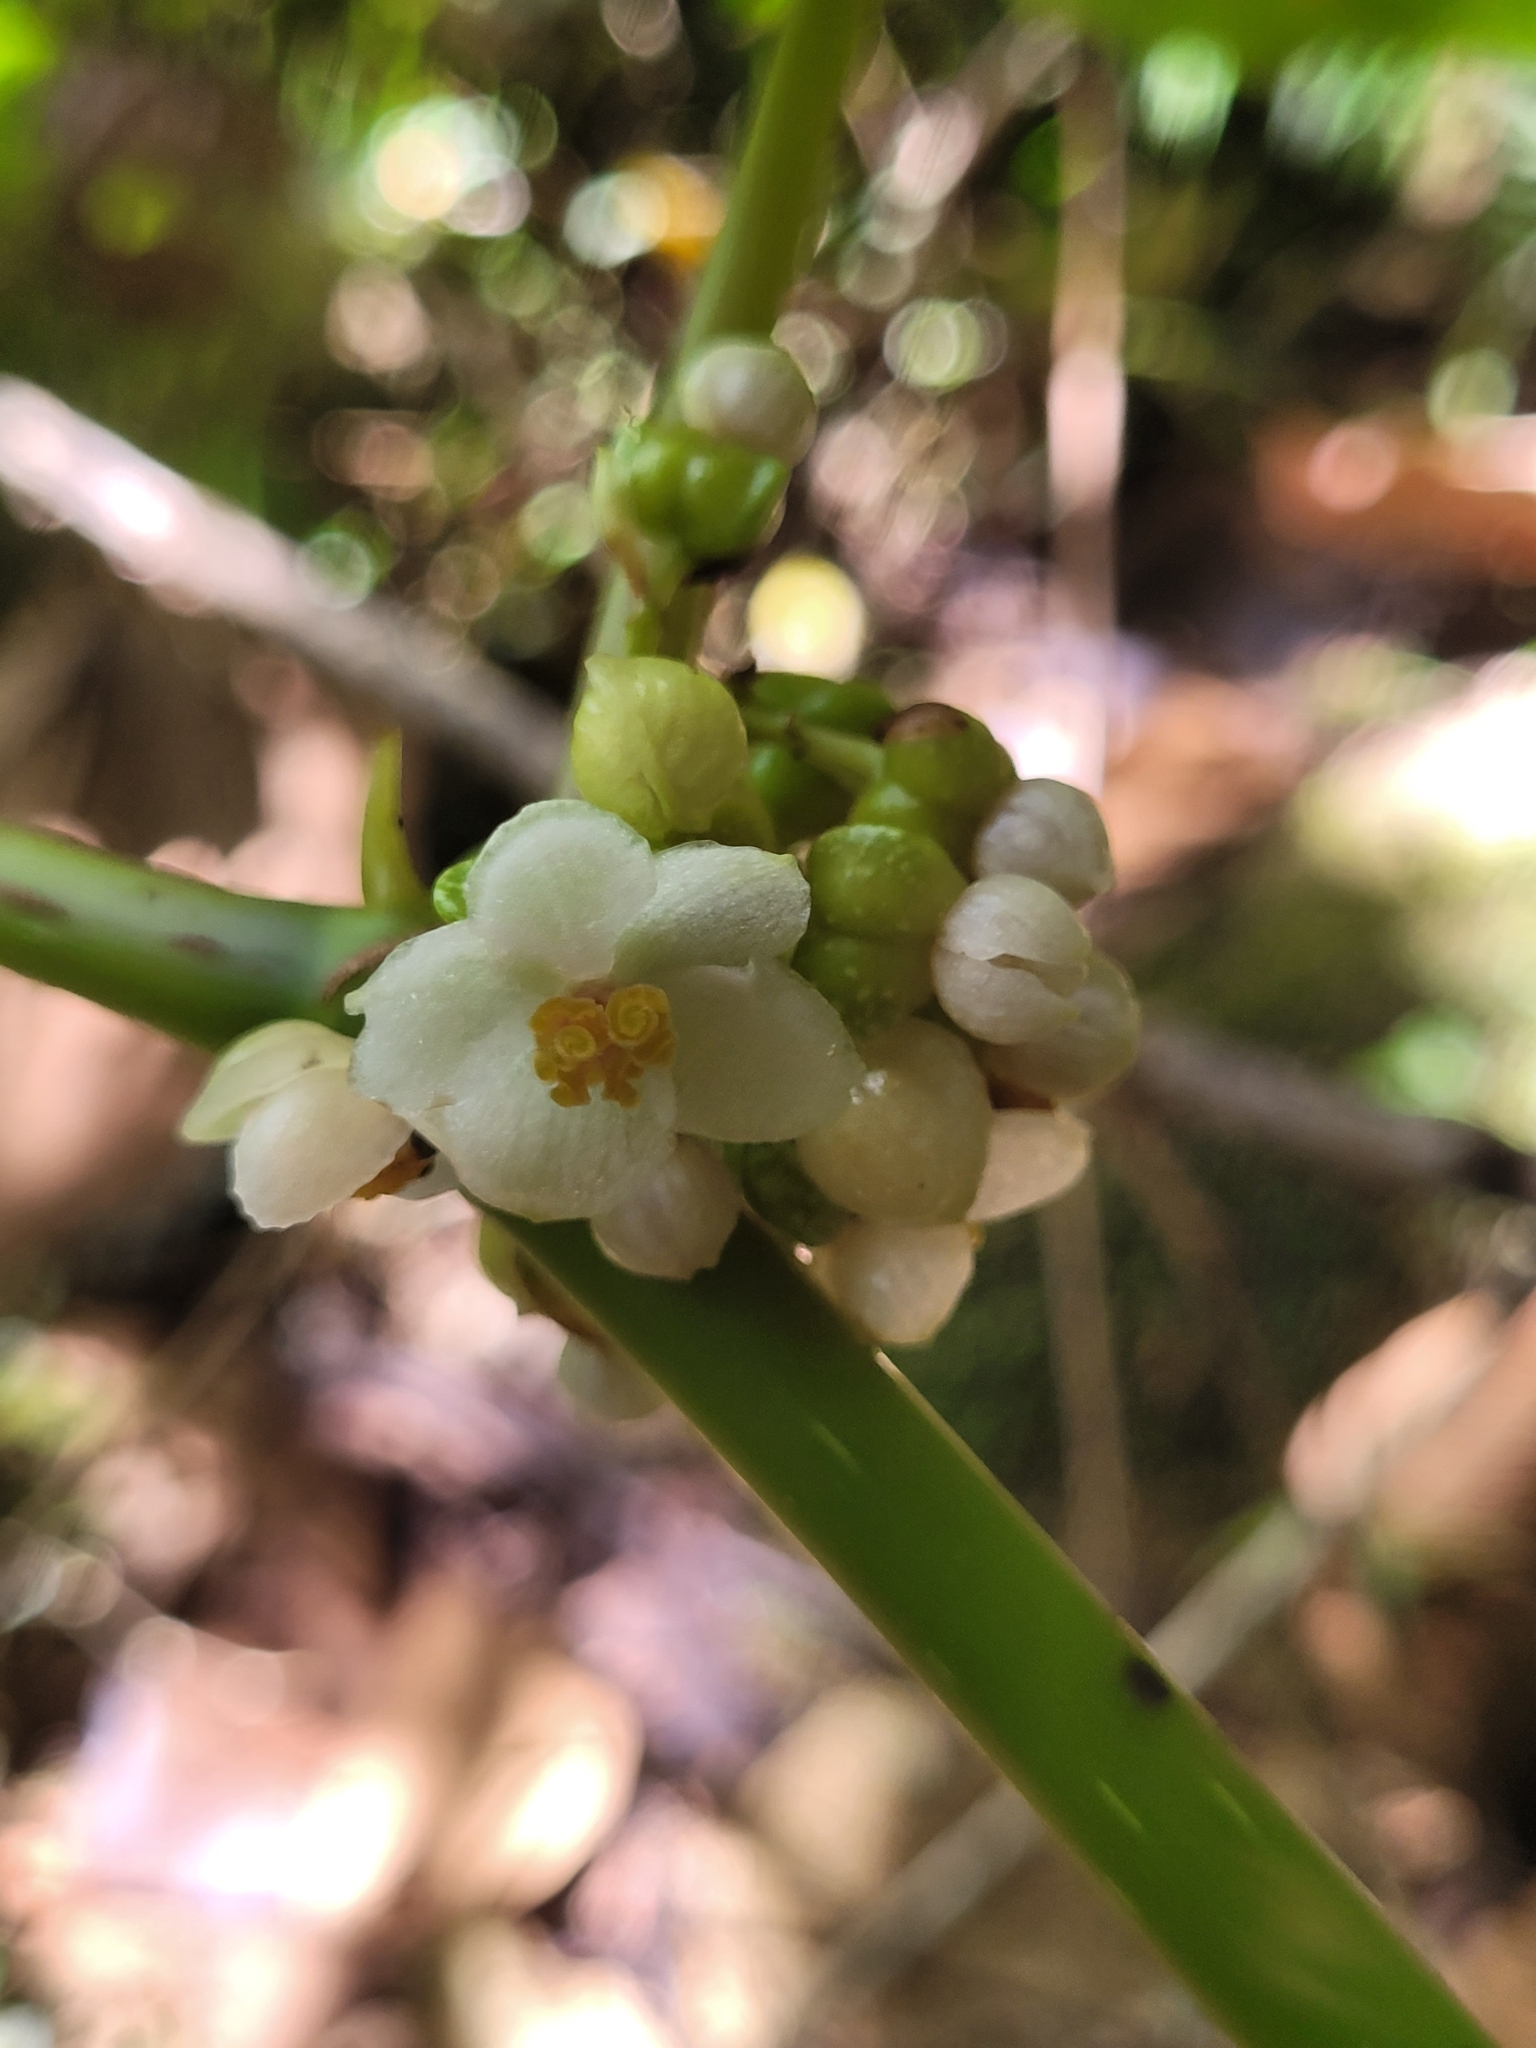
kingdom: Plantae
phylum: Tracheophyta
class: Magnoliopsida
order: Cucurbitales
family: Begoniaceae
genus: Begonia
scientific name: Begonia aptera
